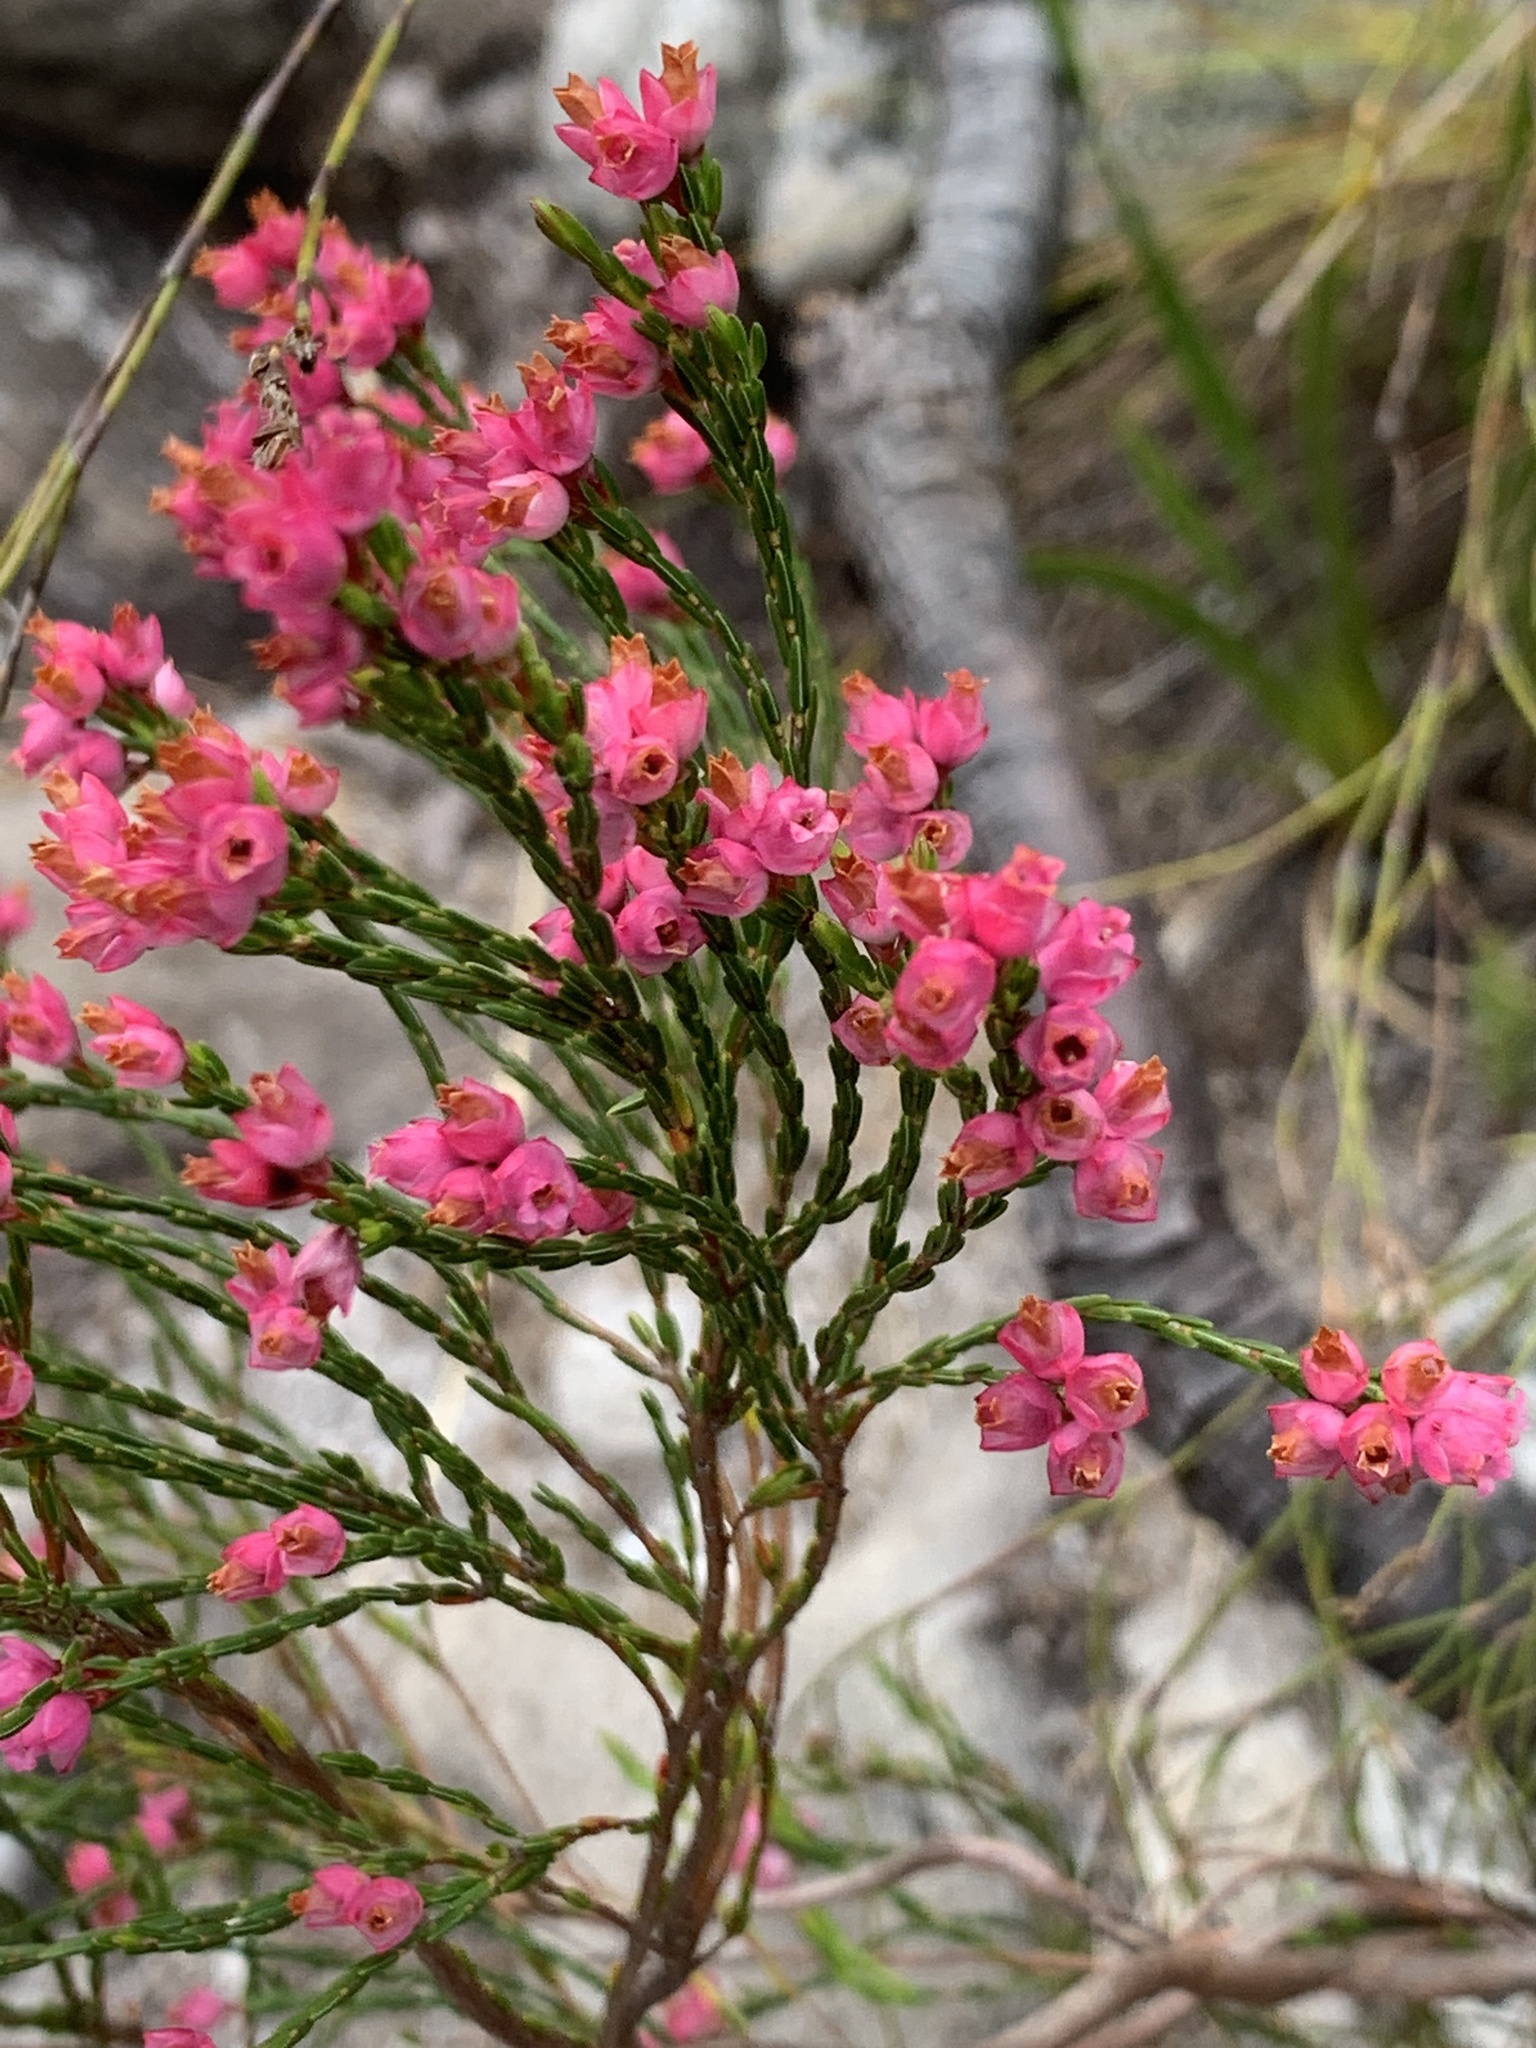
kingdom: Plantae
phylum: Tracheophyta
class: Magnoliopsida
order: Ericales
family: Ericaceae
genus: Erica
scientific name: Erica tenuifolia
